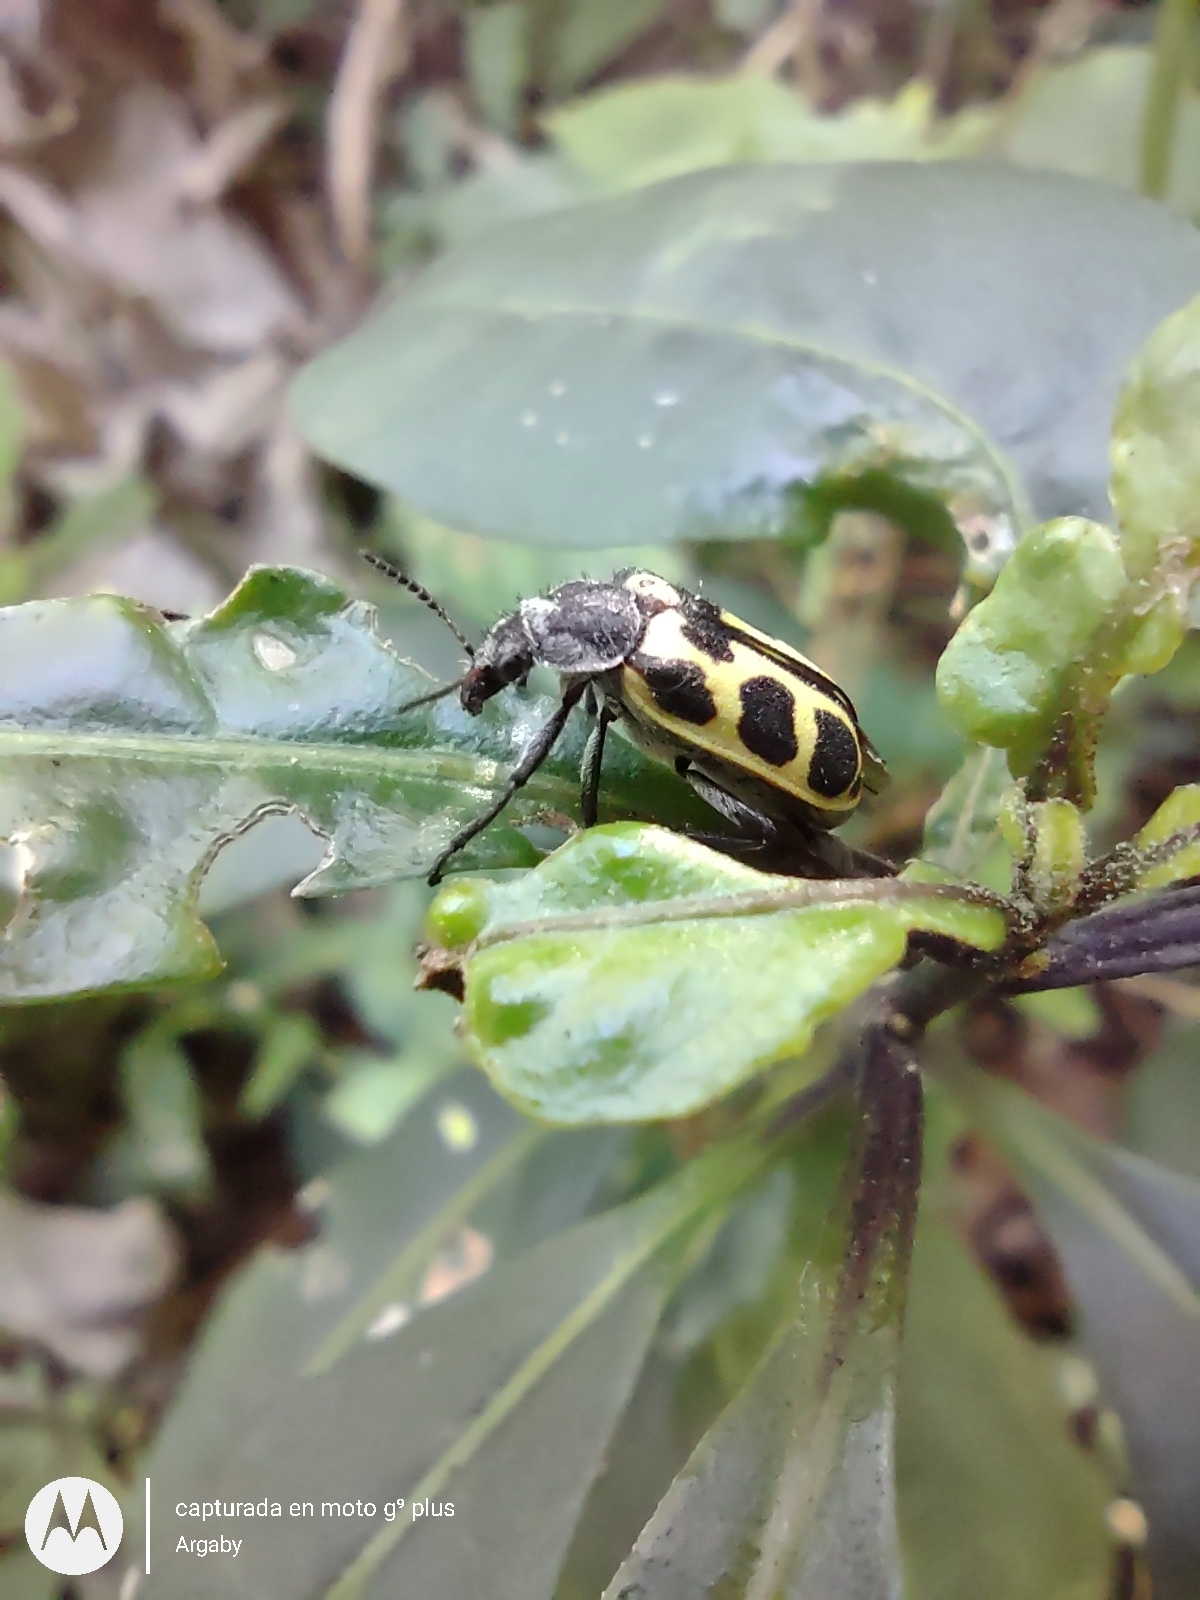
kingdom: Animalia
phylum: Arthropoda
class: Insecta
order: Coleoptera
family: Melyridae
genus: Astylus
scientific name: Astylus atromaculatus
